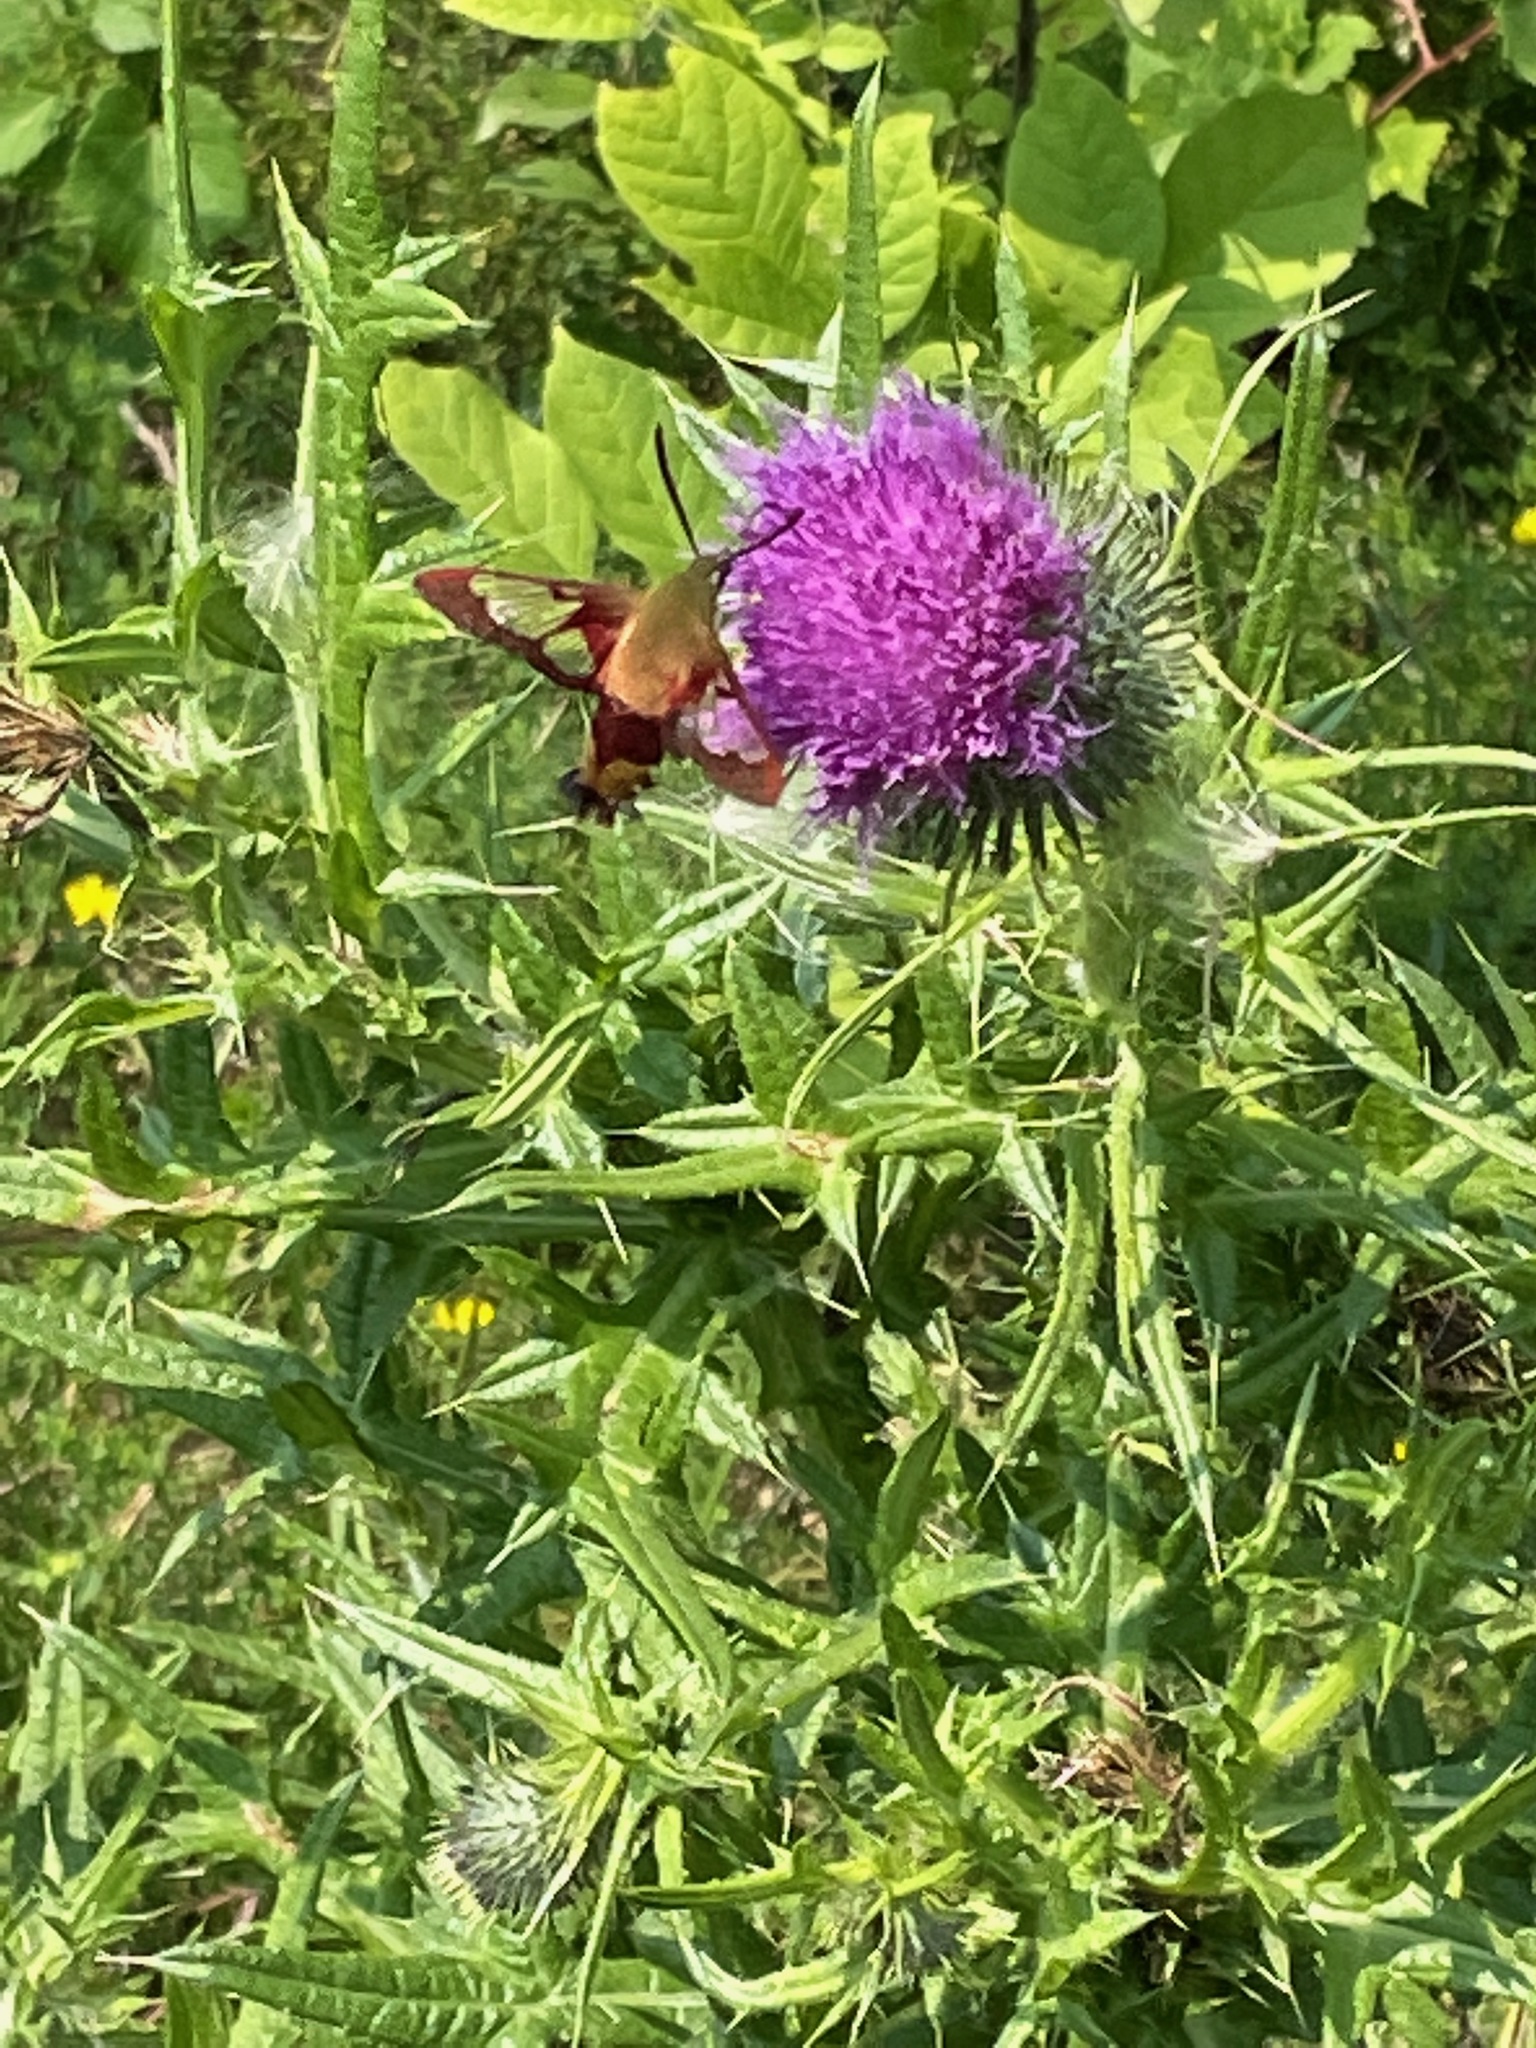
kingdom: Plantae
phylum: Tracheophyta
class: Magnoliopsida
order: Asterales
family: Asteraceae
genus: Cirsium
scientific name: Cirsium vulgare
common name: Bull thistle
